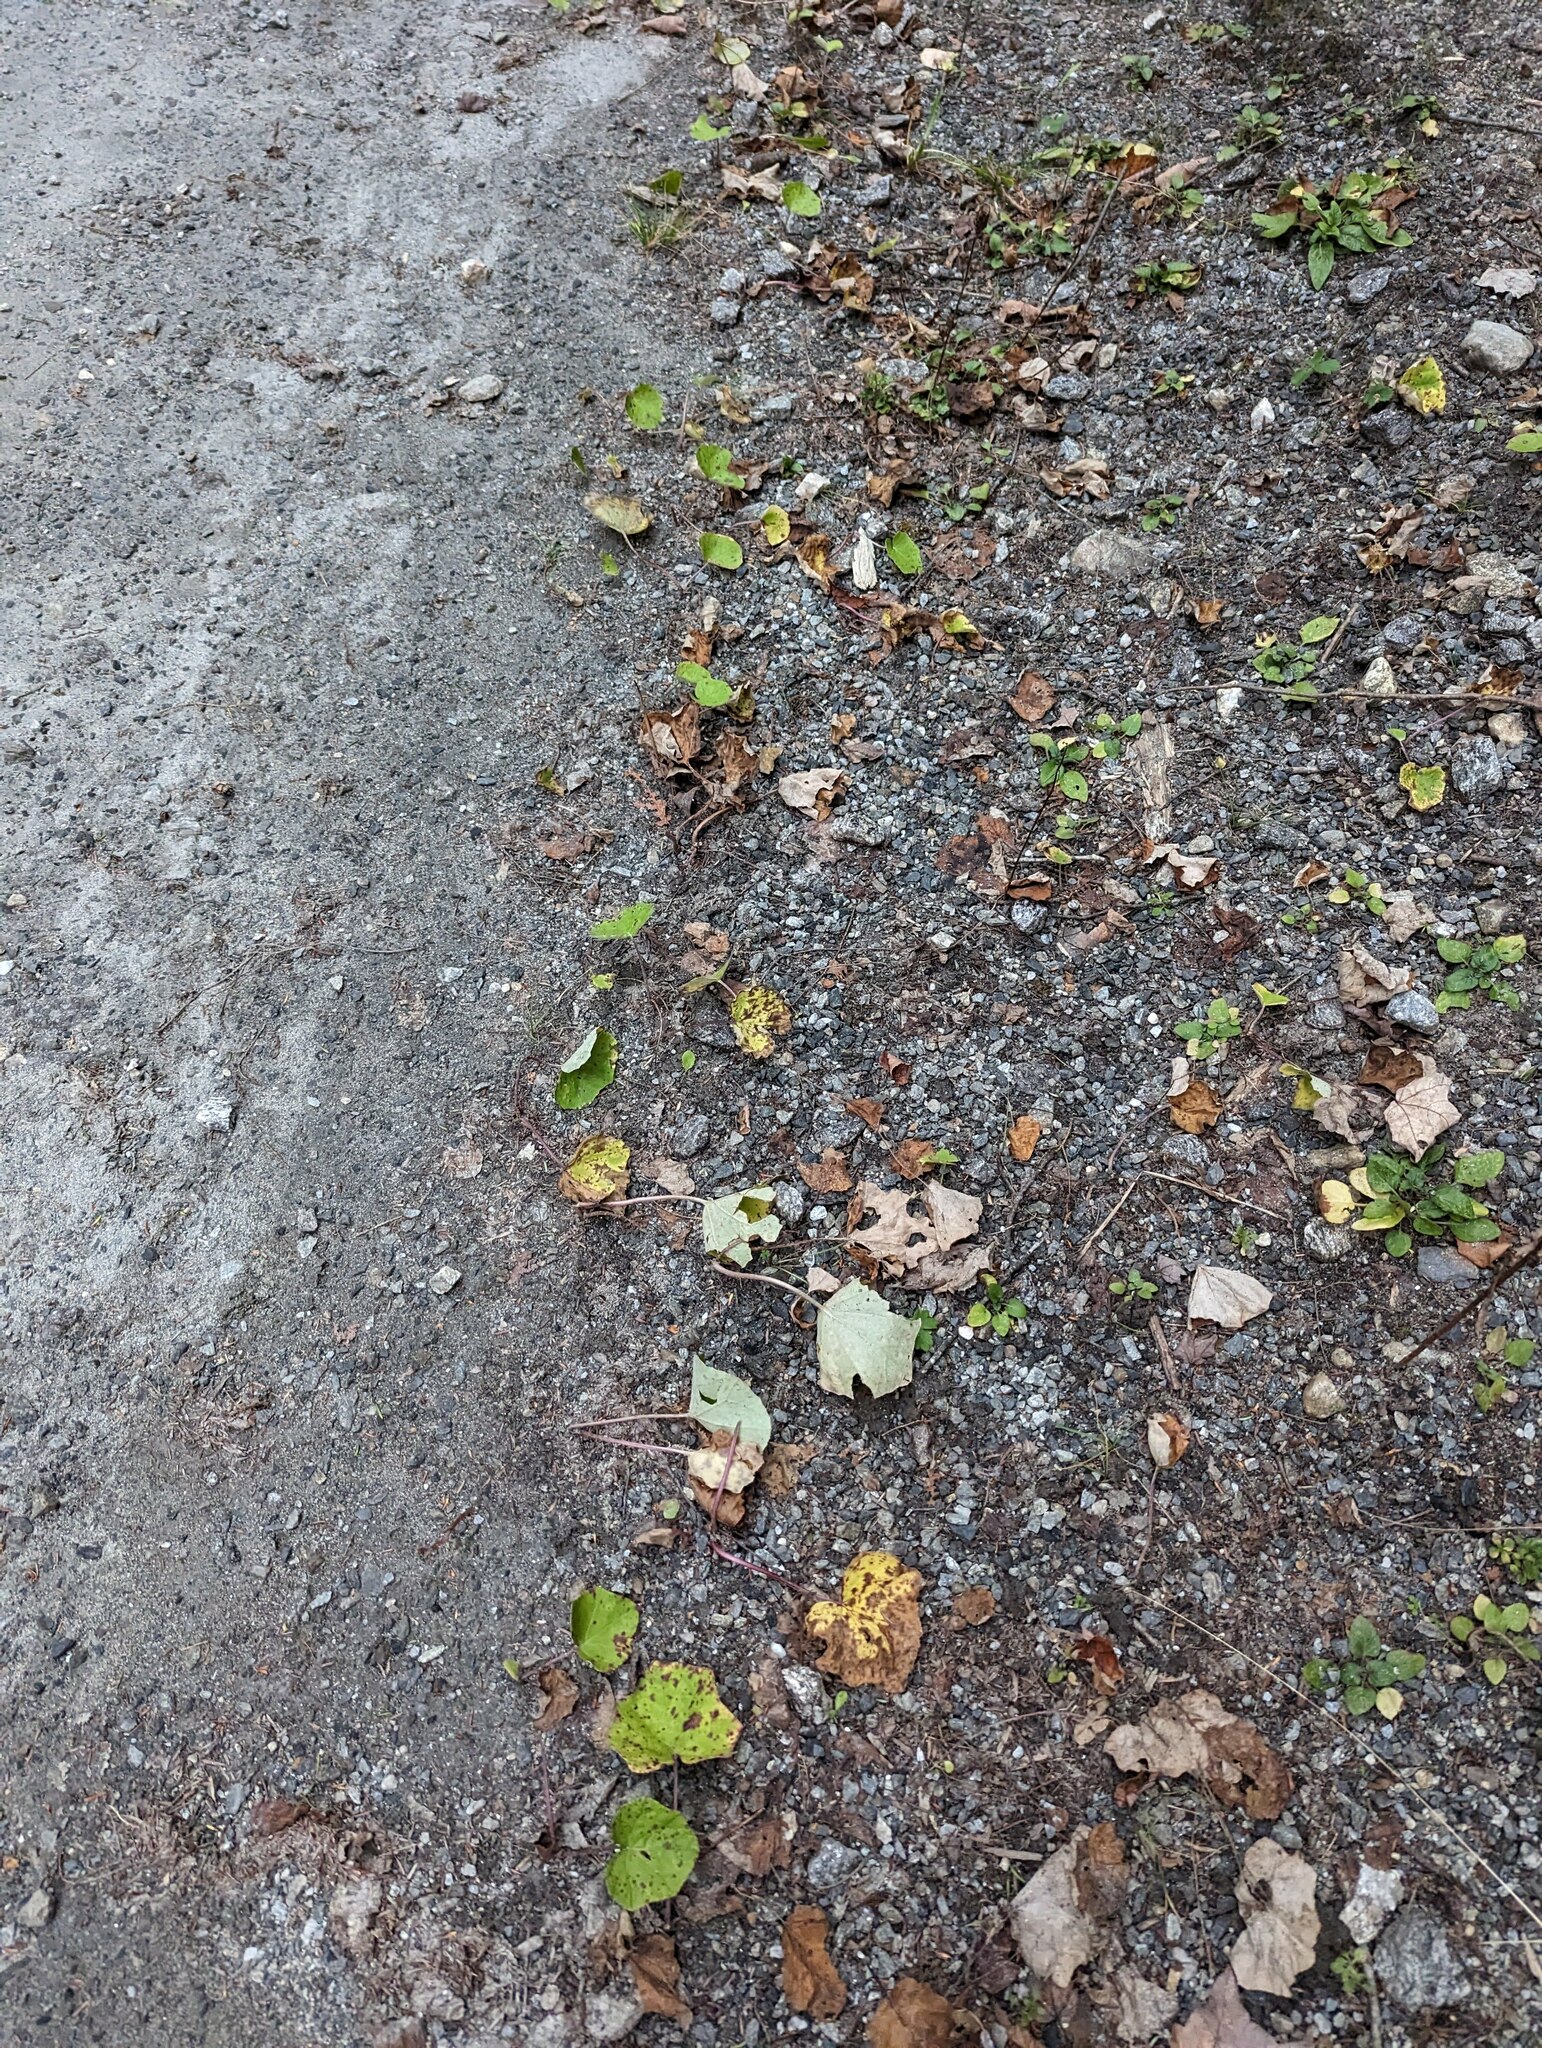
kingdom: Plantae
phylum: Tracheophyta
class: Magnoliopsida
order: Asterales
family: Asteraceae
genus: Tussilago
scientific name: Tussilago farfara
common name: Coltsfoot
